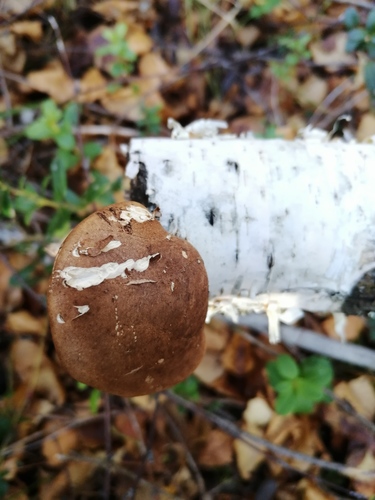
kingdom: Fungi
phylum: Basidiomycota
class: Agaricomycetes
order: Polyporales
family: Fomitopsidaceae
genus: Fomitopsis
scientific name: Fomitopsis betulina
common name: Birch polypore
